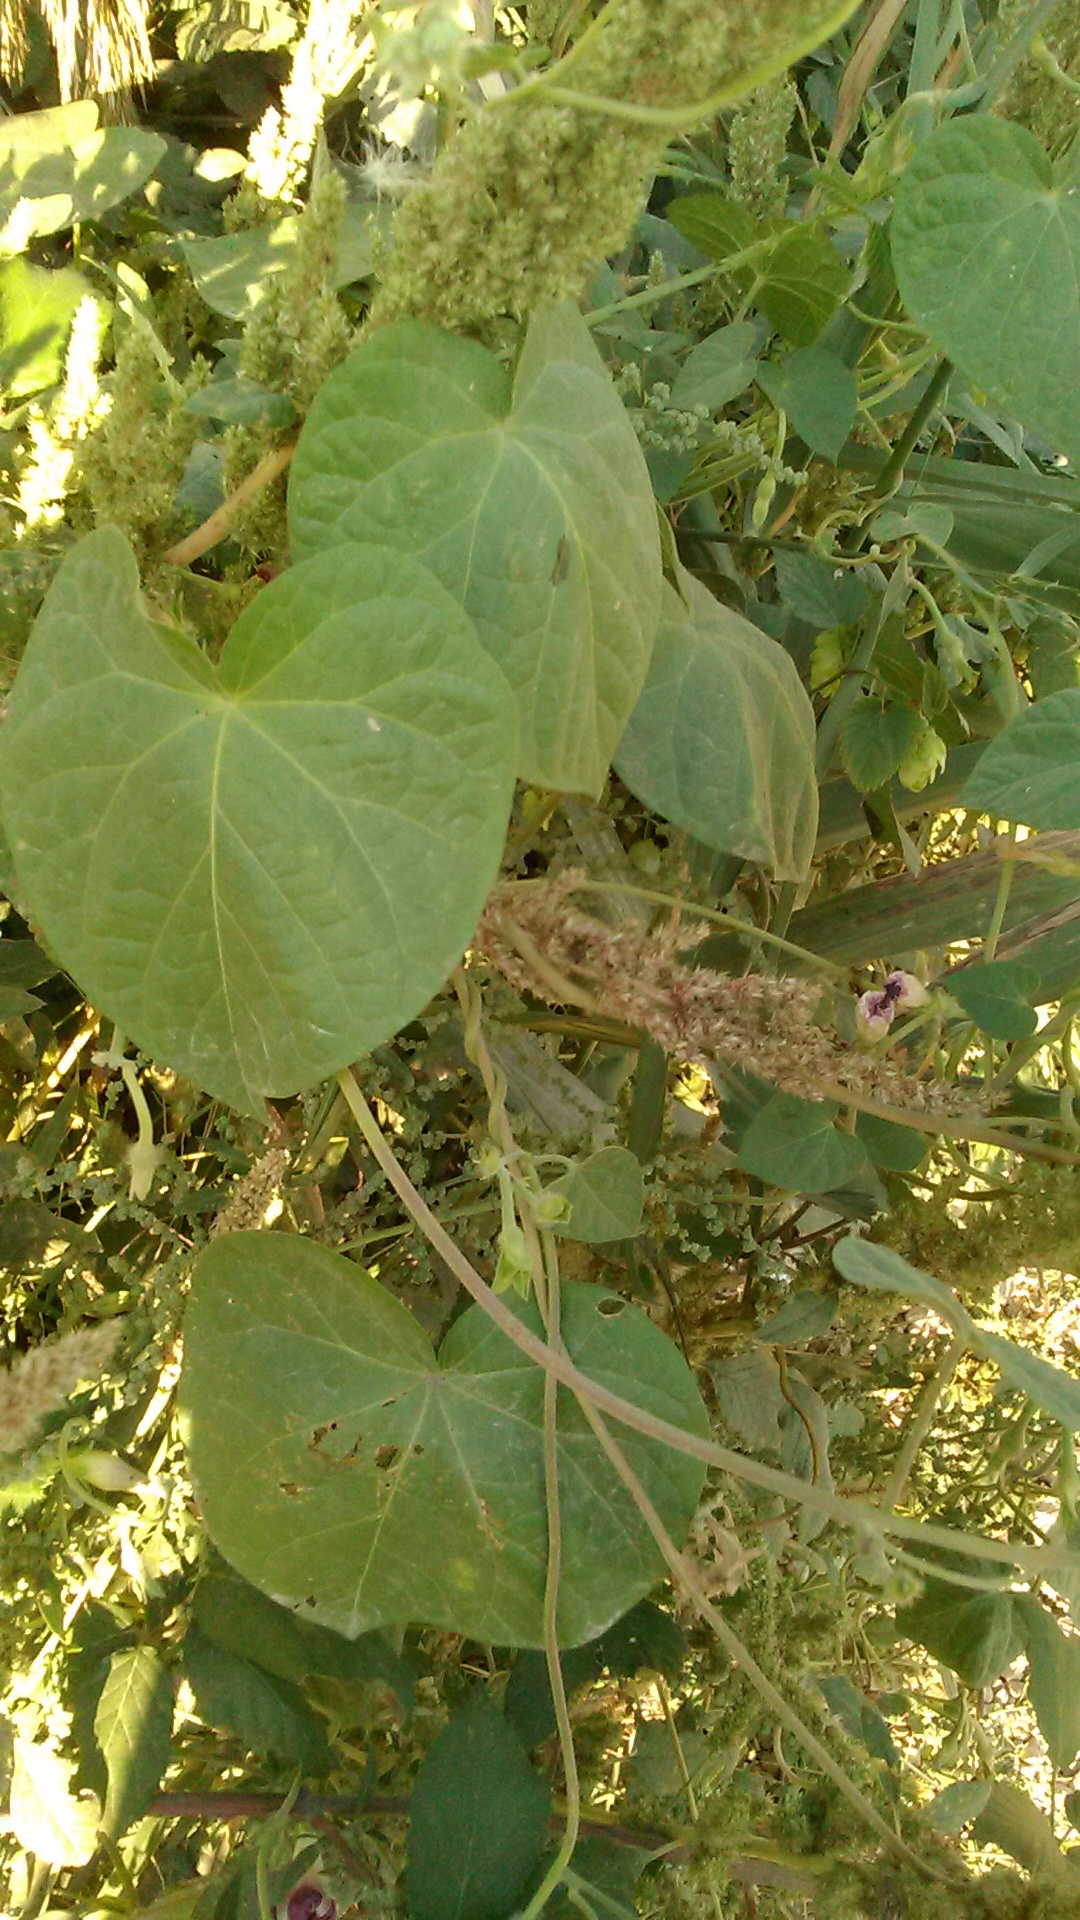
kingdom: Plantae
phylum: Tracheophyta
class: Magnoliopsida
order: Solanales
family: Convolvulaceae
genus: Ipomoea
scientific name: Ipomoea purpurea
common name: Common morning-glory
